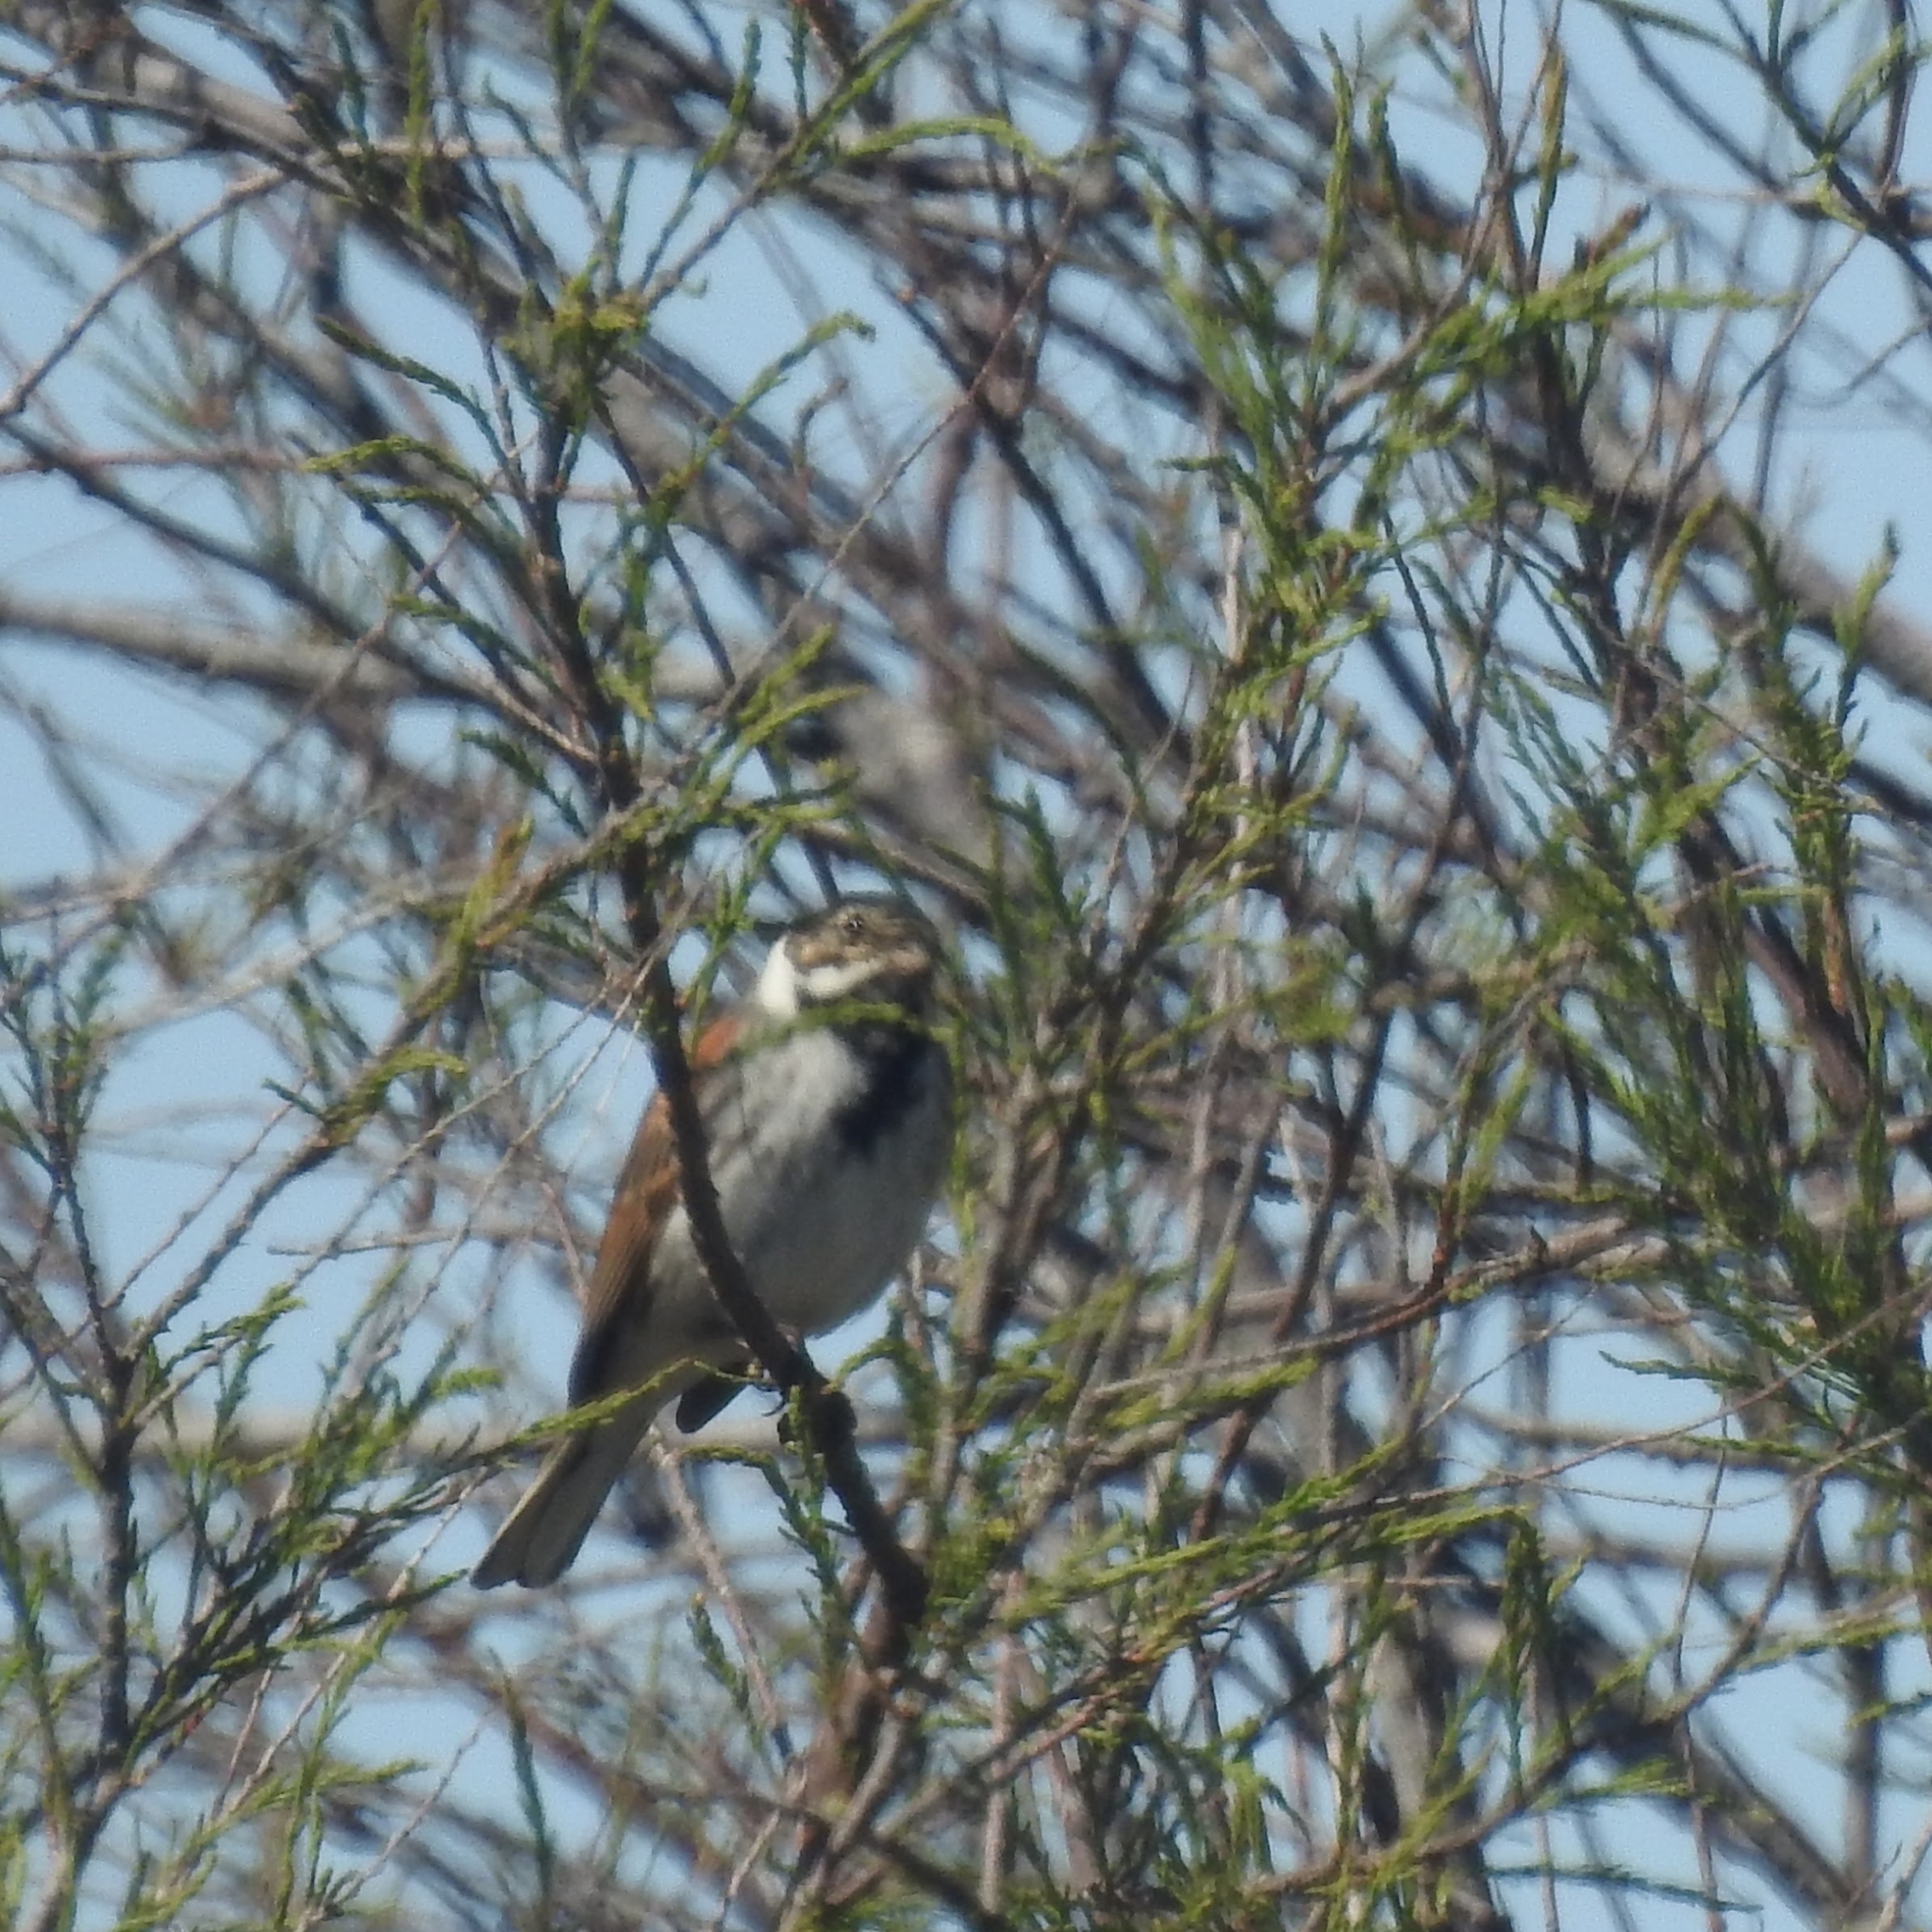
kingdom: Animalia
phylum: Chordata
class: Aves
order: Passeriformes
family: Emberizidae
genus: Emberiza
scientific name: Emberiza schoeniclus
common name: Reed bunting
